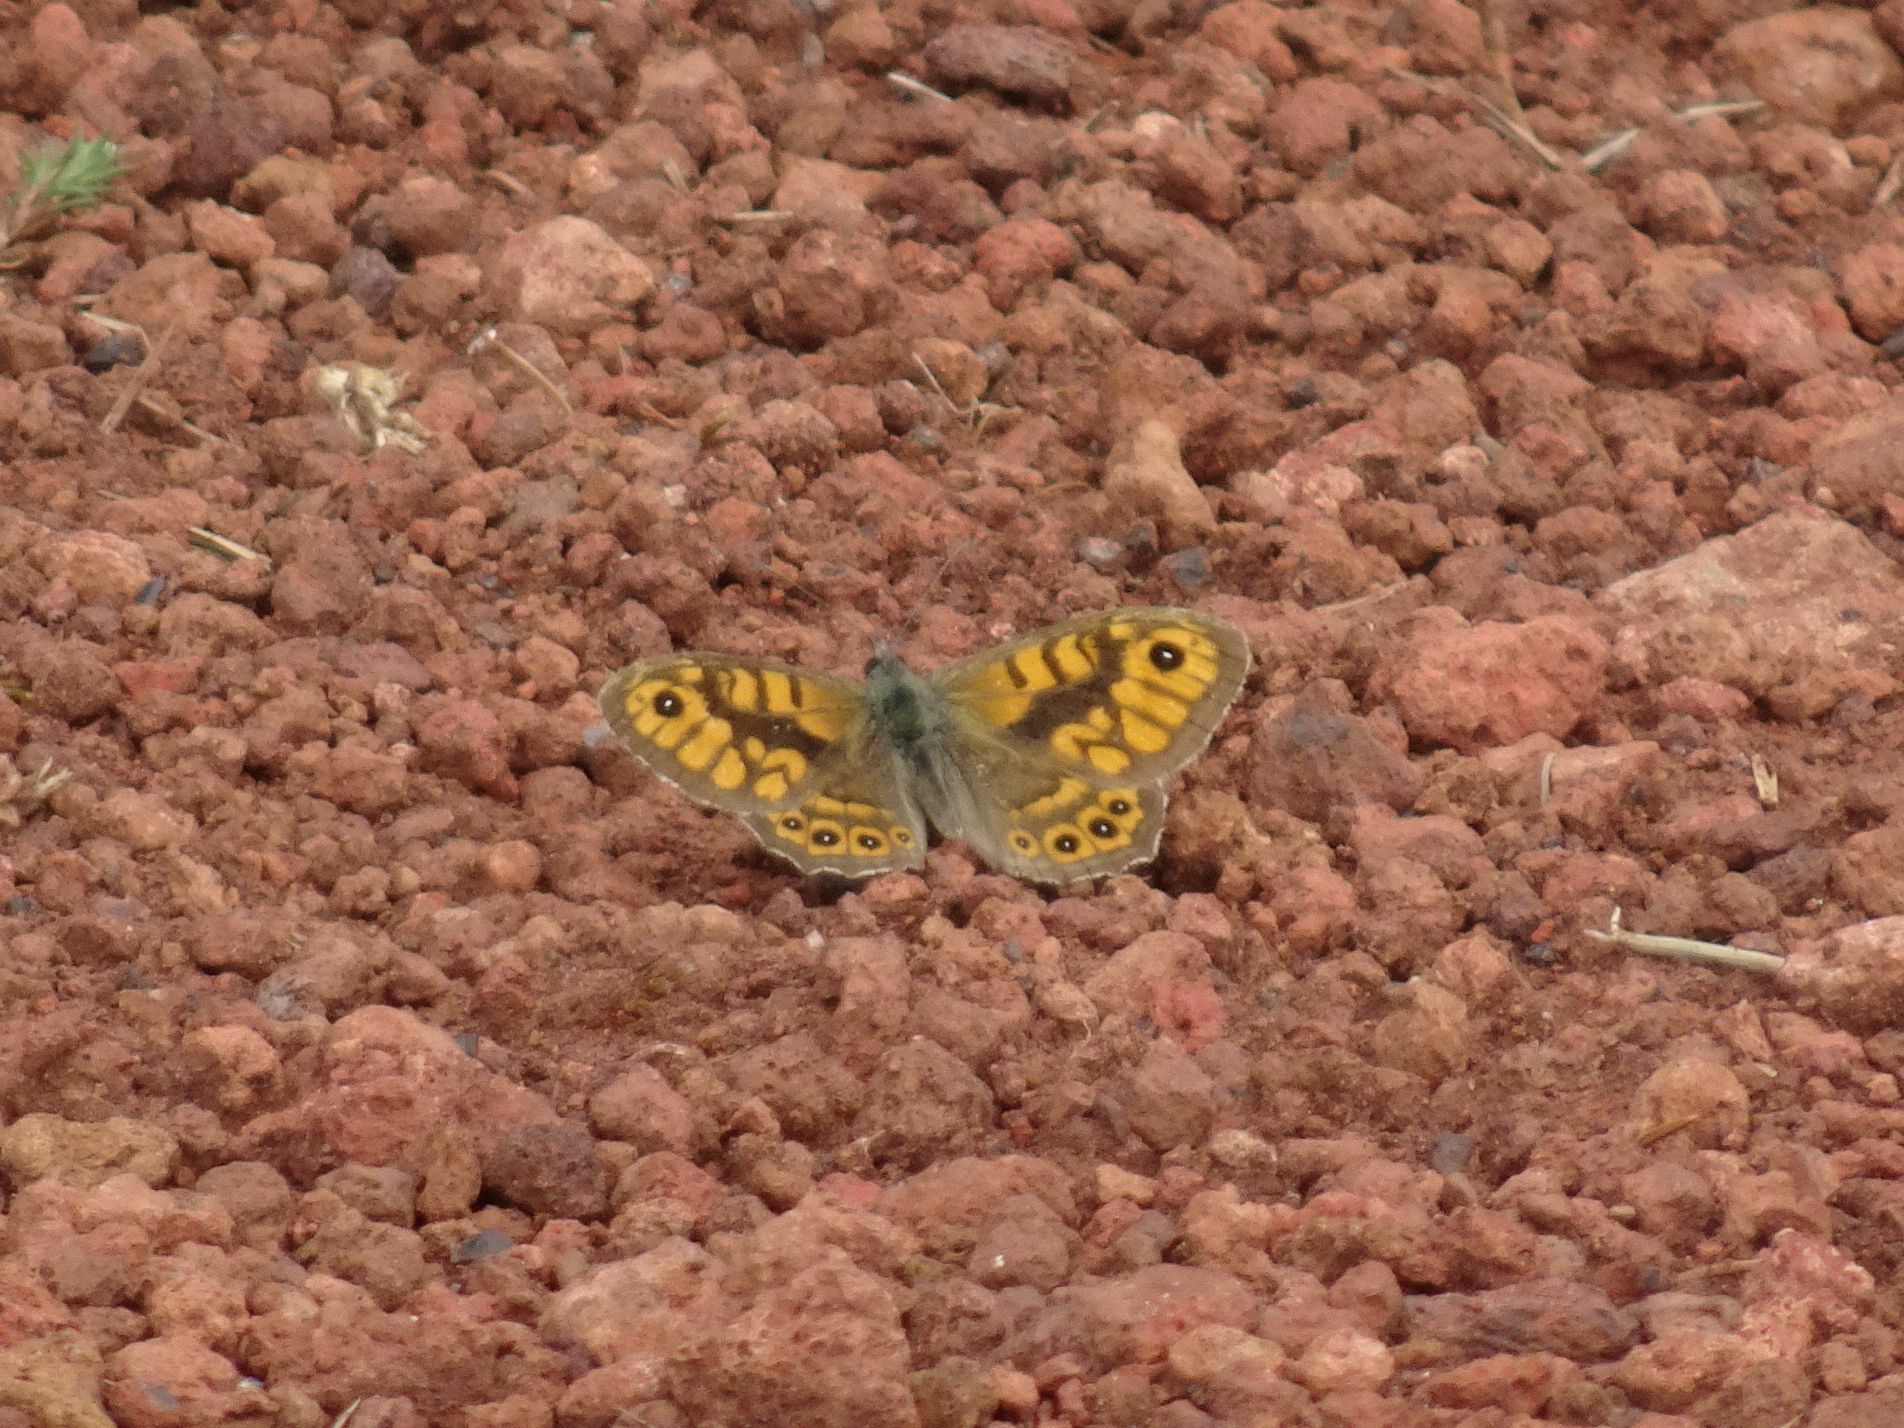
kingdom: Animalia
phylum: Arthropoda
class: Insecta
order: Lepidoptera
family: Nymphalidae
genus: Pararge
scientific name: Pararge Lasiommata megera
